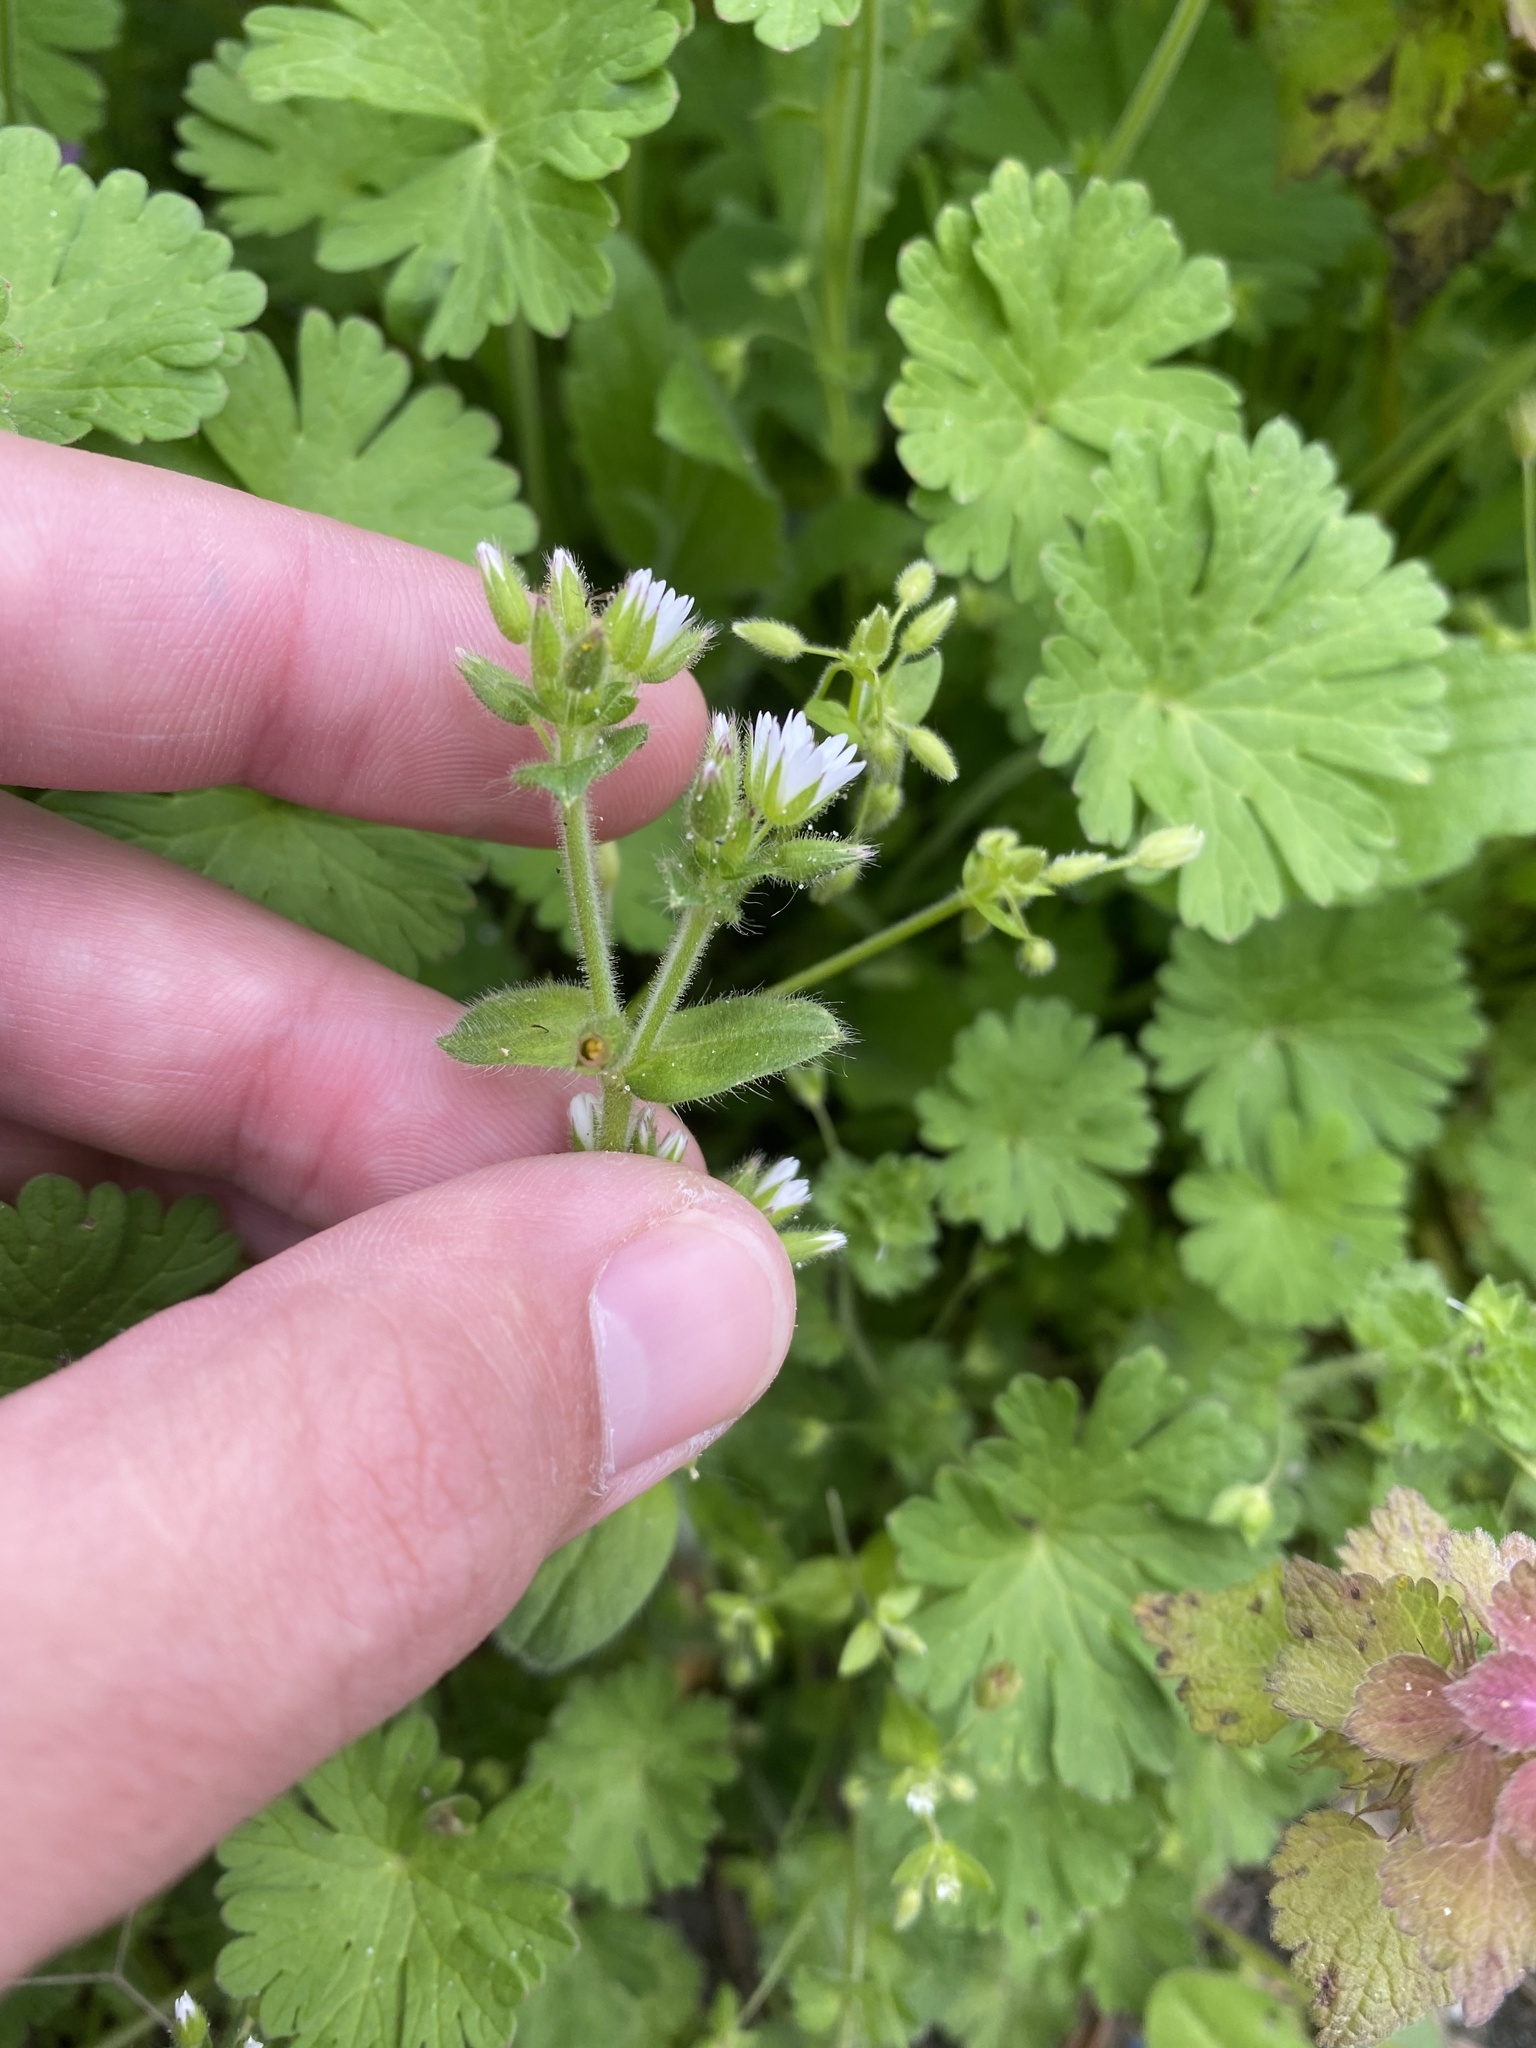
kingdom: Plantae
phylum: Tracheophyta
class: Magnoliopsida
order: Caryophyllales
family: Caryophyllaceae
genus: Cerastium
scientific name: Cerastium glomeratum
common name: Sticky chickweed
